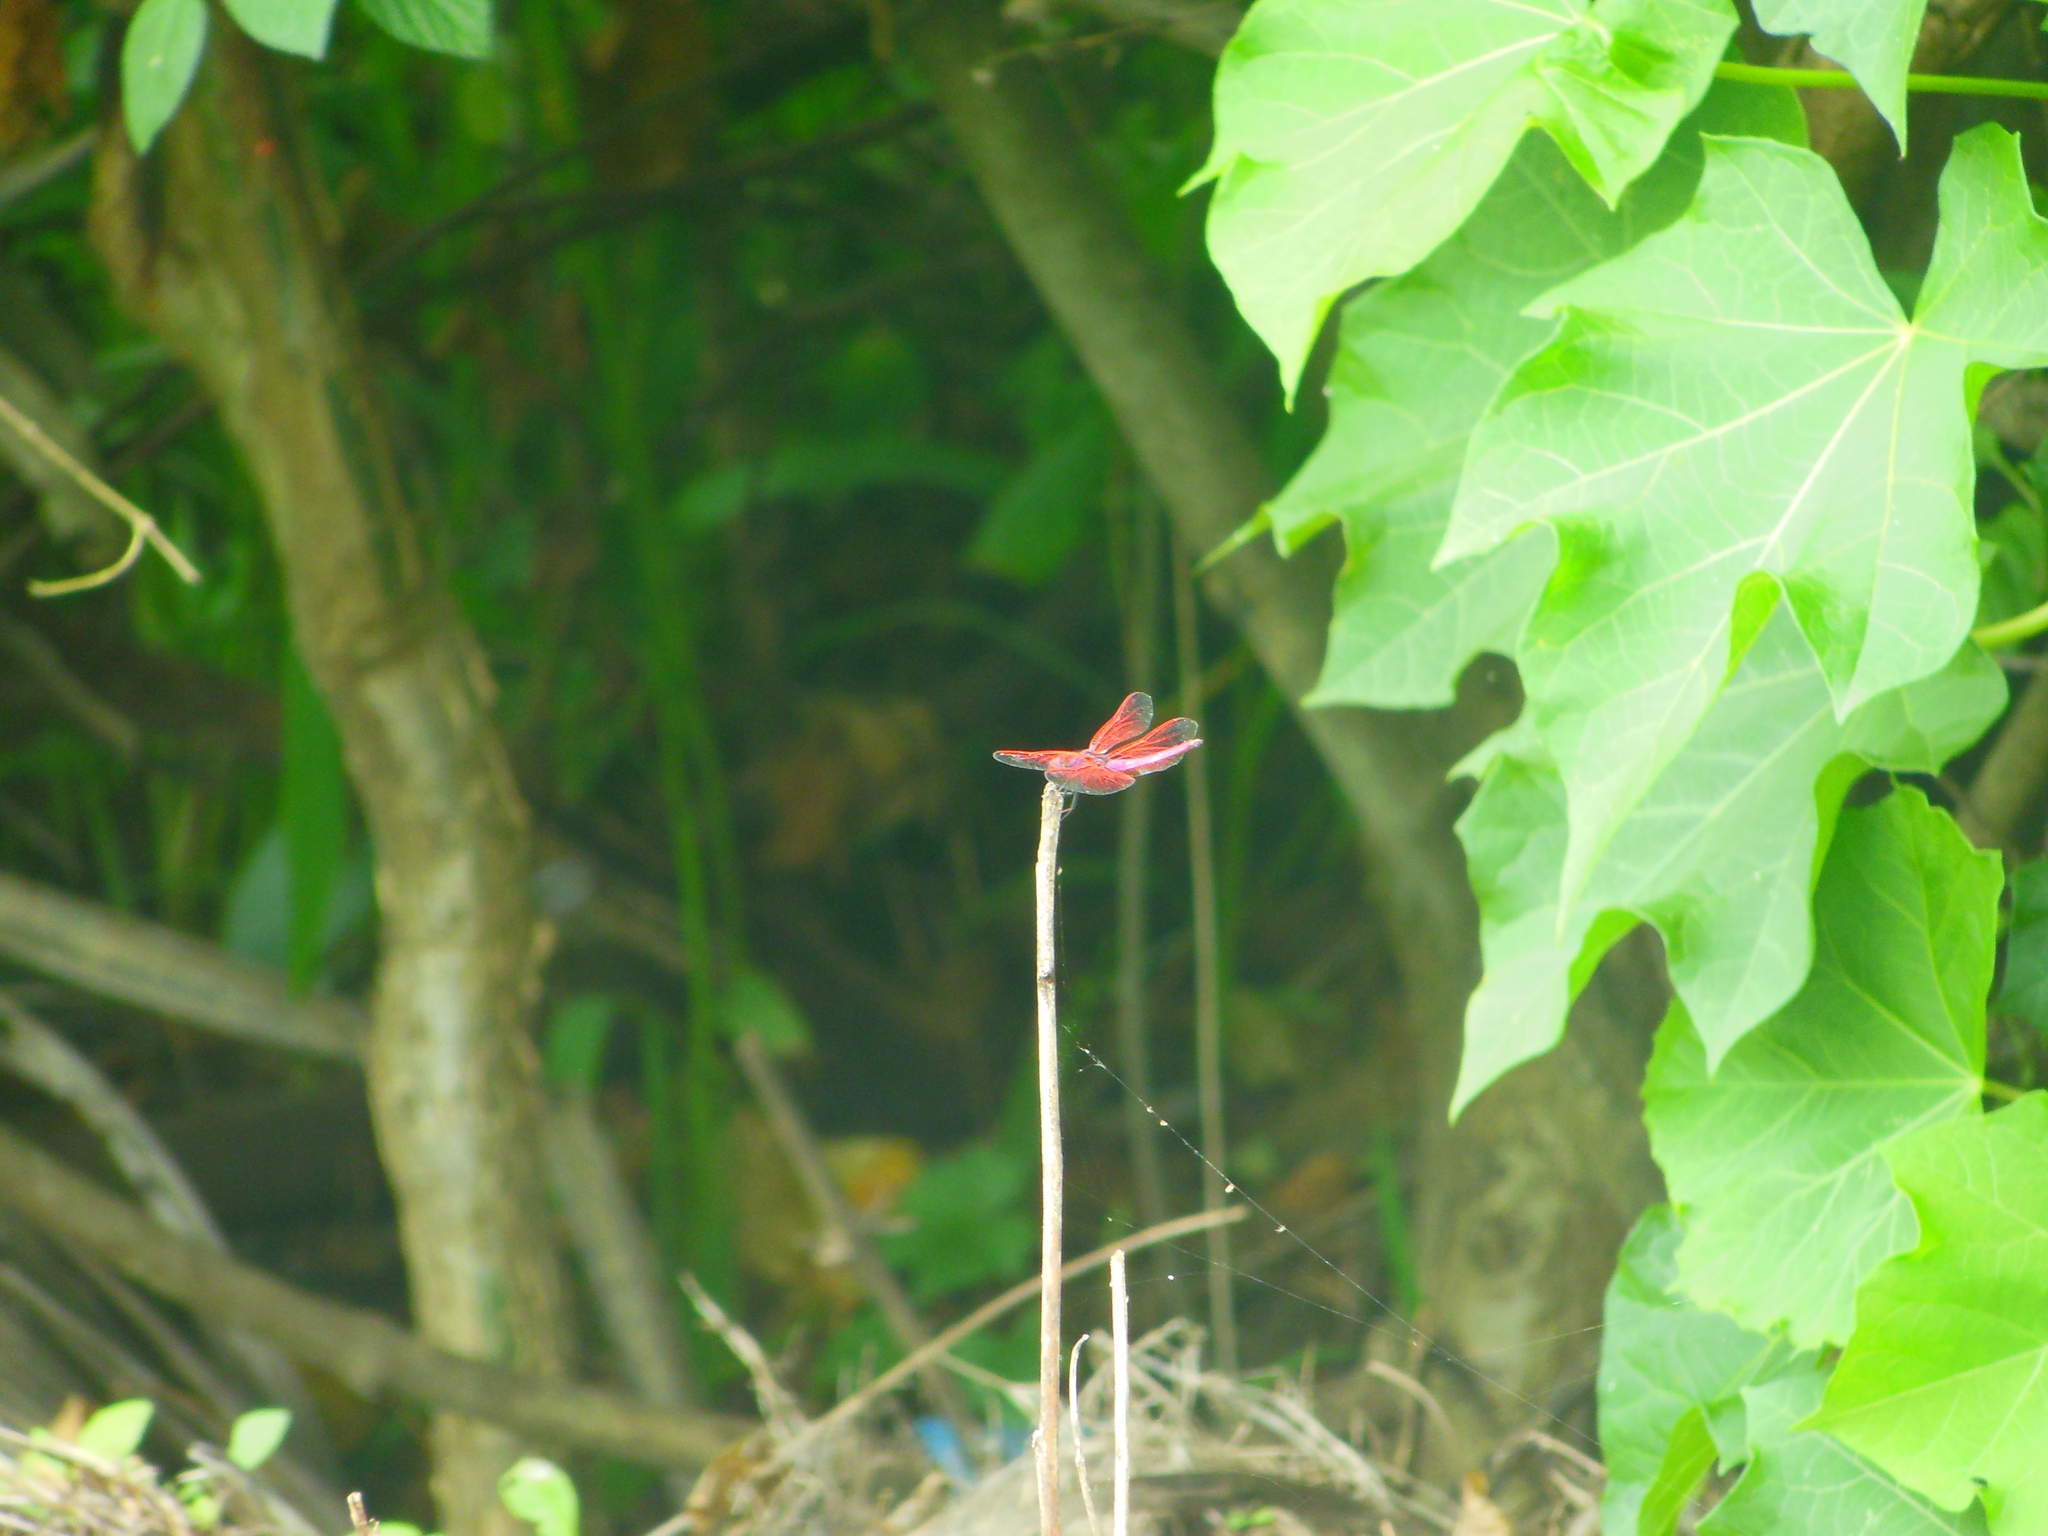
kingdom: Animalia
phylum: Arthropoda
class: Insecta
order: Odonata
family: Libellulidae
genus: Neurothemis
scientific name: Neurothemis fulvia
